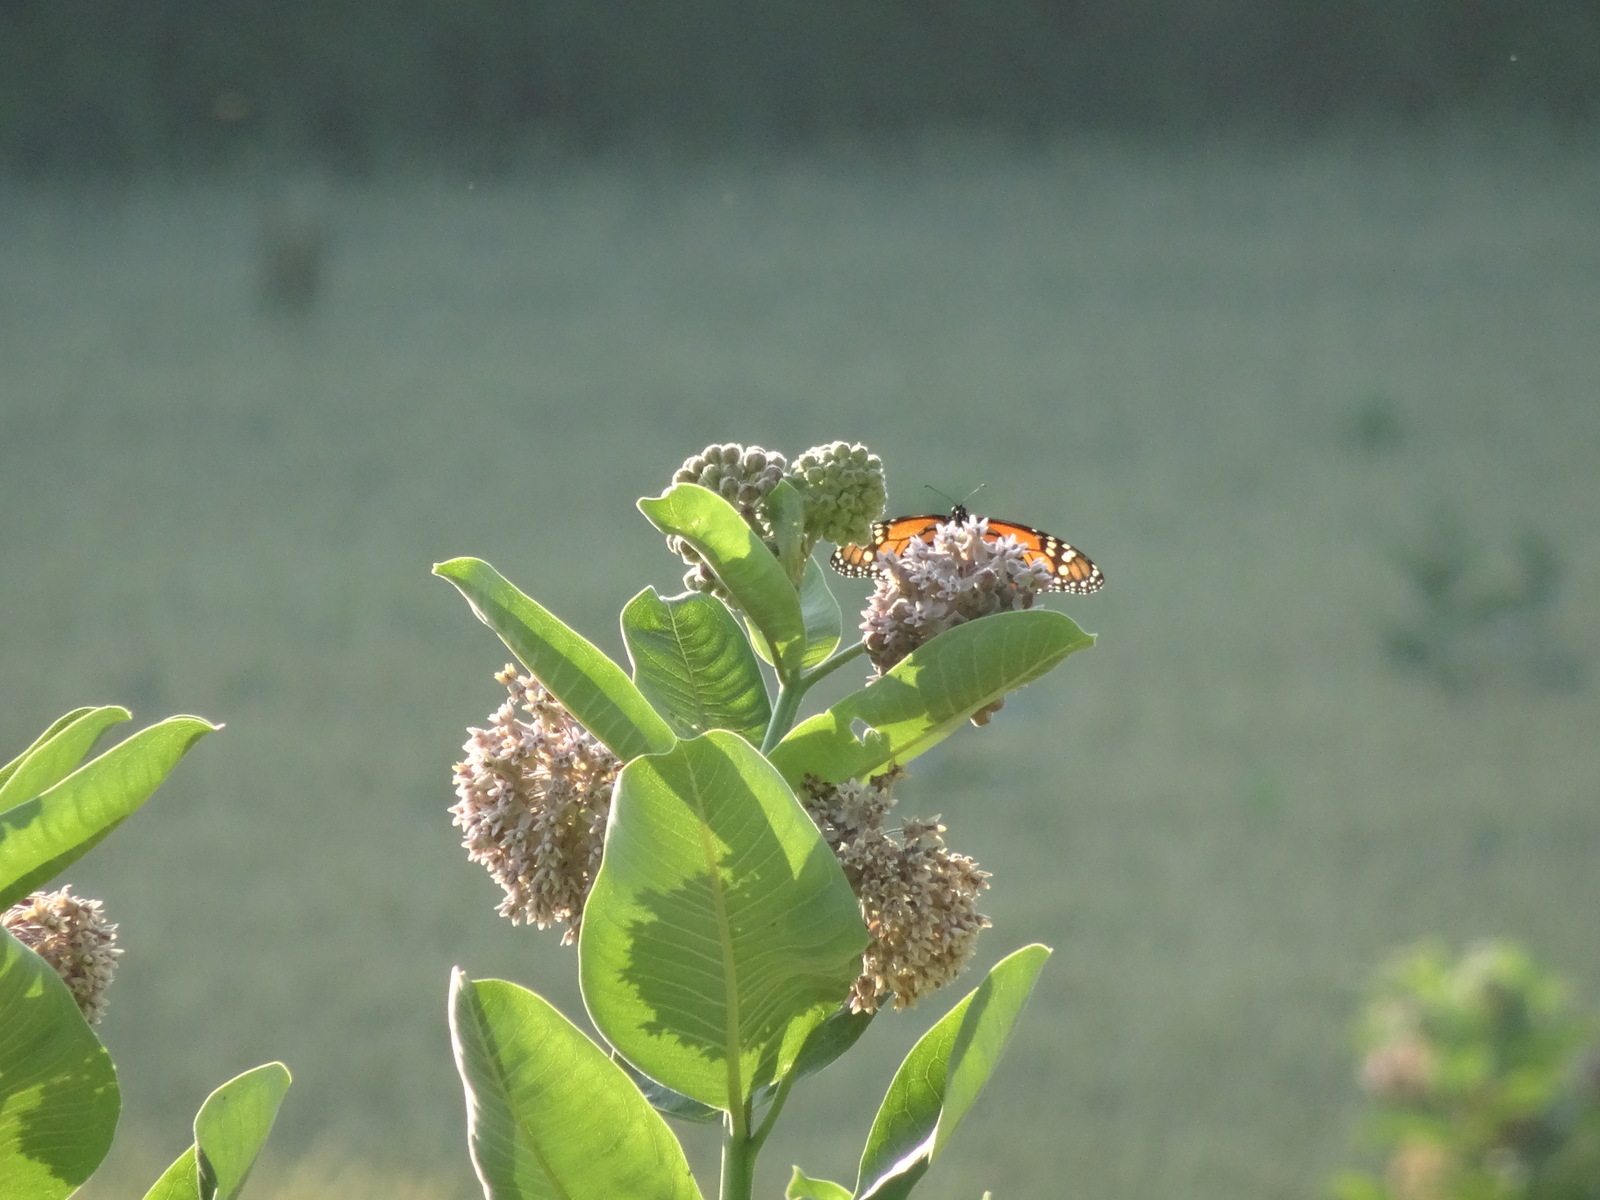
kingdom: Animalia
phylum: Arthropoda
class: Insecta
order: Lepidoptera
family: Nymphalidae
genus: Danaus
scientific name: Danaus plexippus
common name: Monarch
